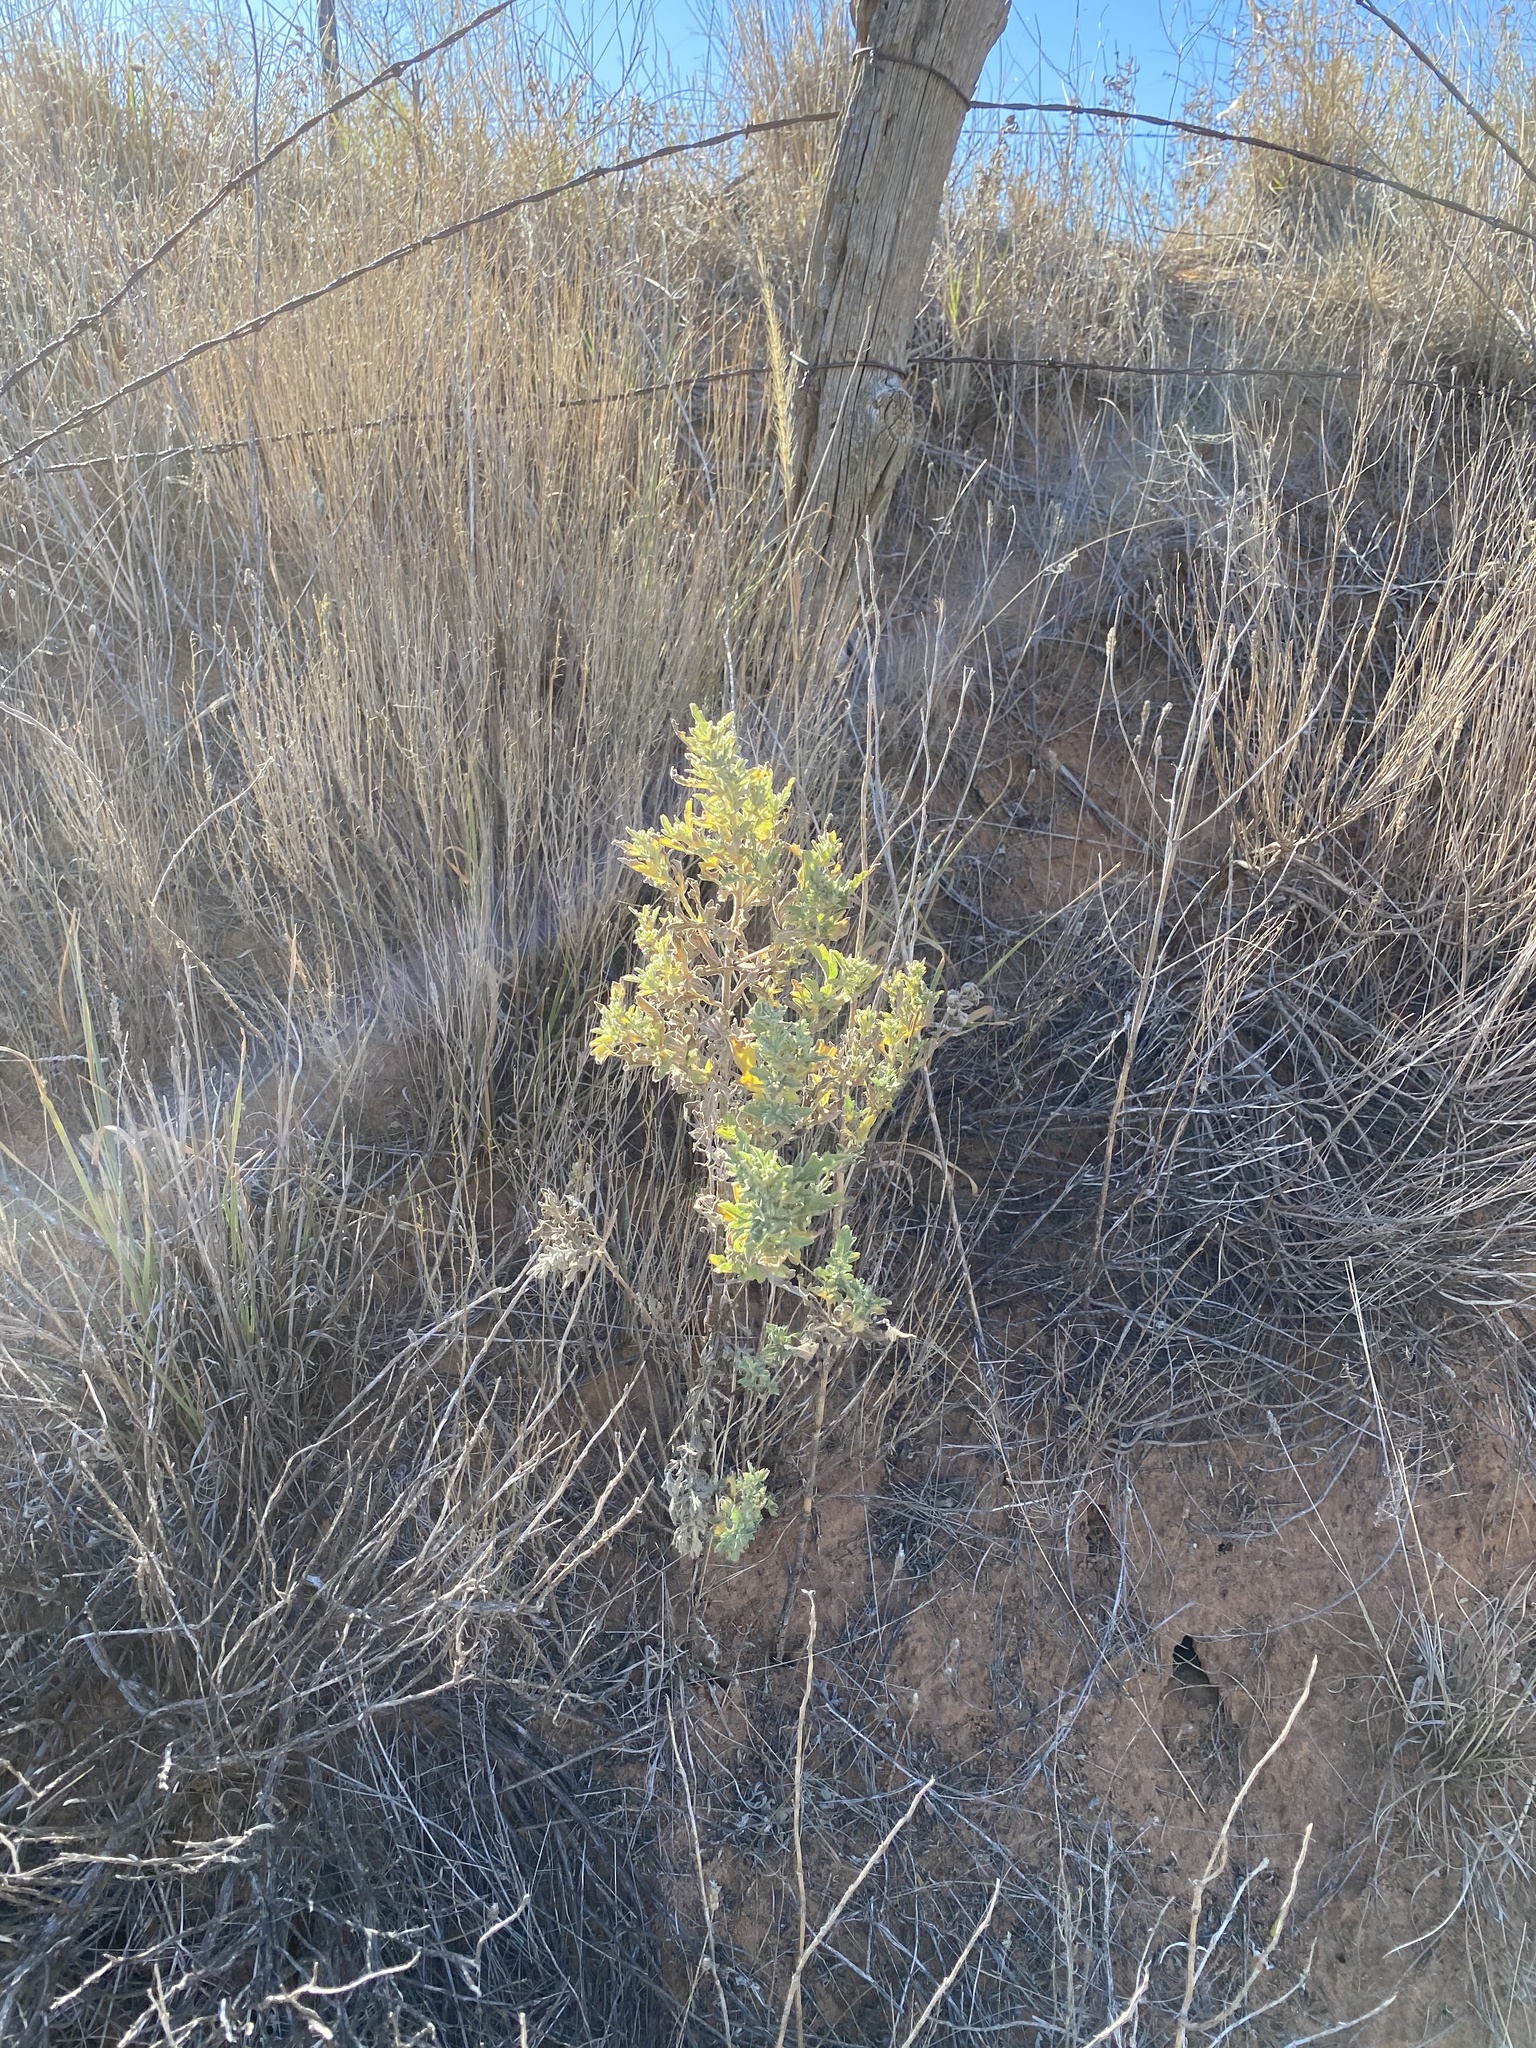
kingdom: Plantae
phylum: Tracheophyta
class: Magnoliopsida
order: Asterales
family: Asteraceae
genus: Ambrosia
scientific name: Ambrosia psilostachya
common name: Perennial ragweed
